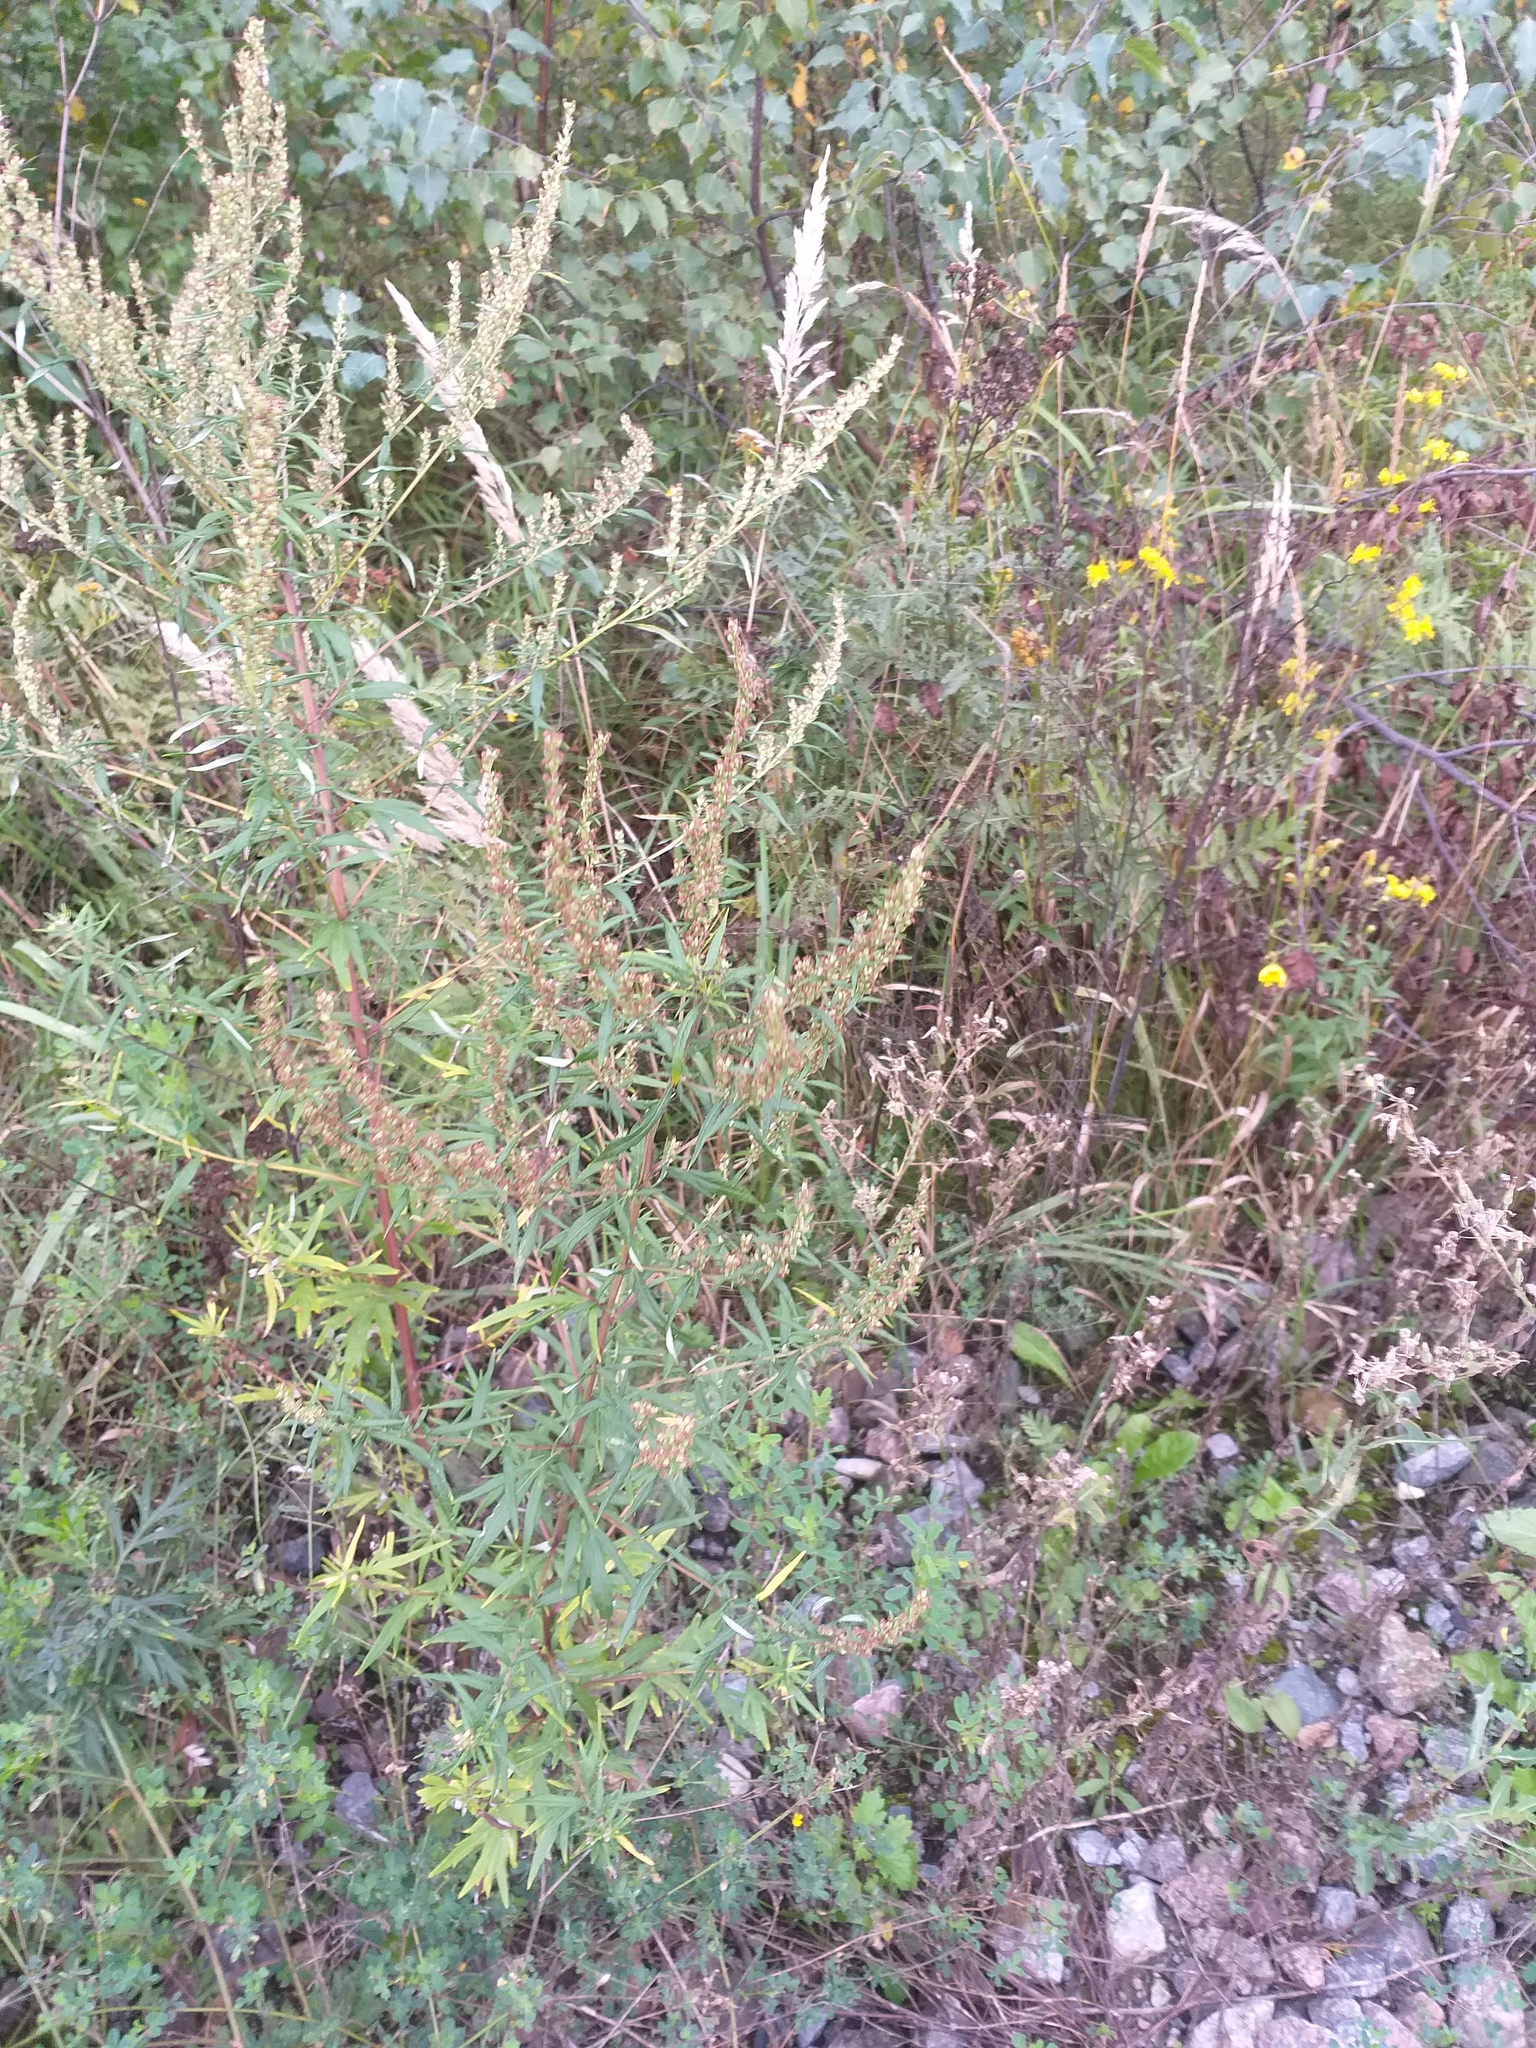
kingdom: Plantae
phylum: Tracheophyta
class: Magnoliopsida
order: Asterales
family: Asteraceae
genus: Artemisia
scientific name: Artemisia vulgaris
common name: Mugwort
